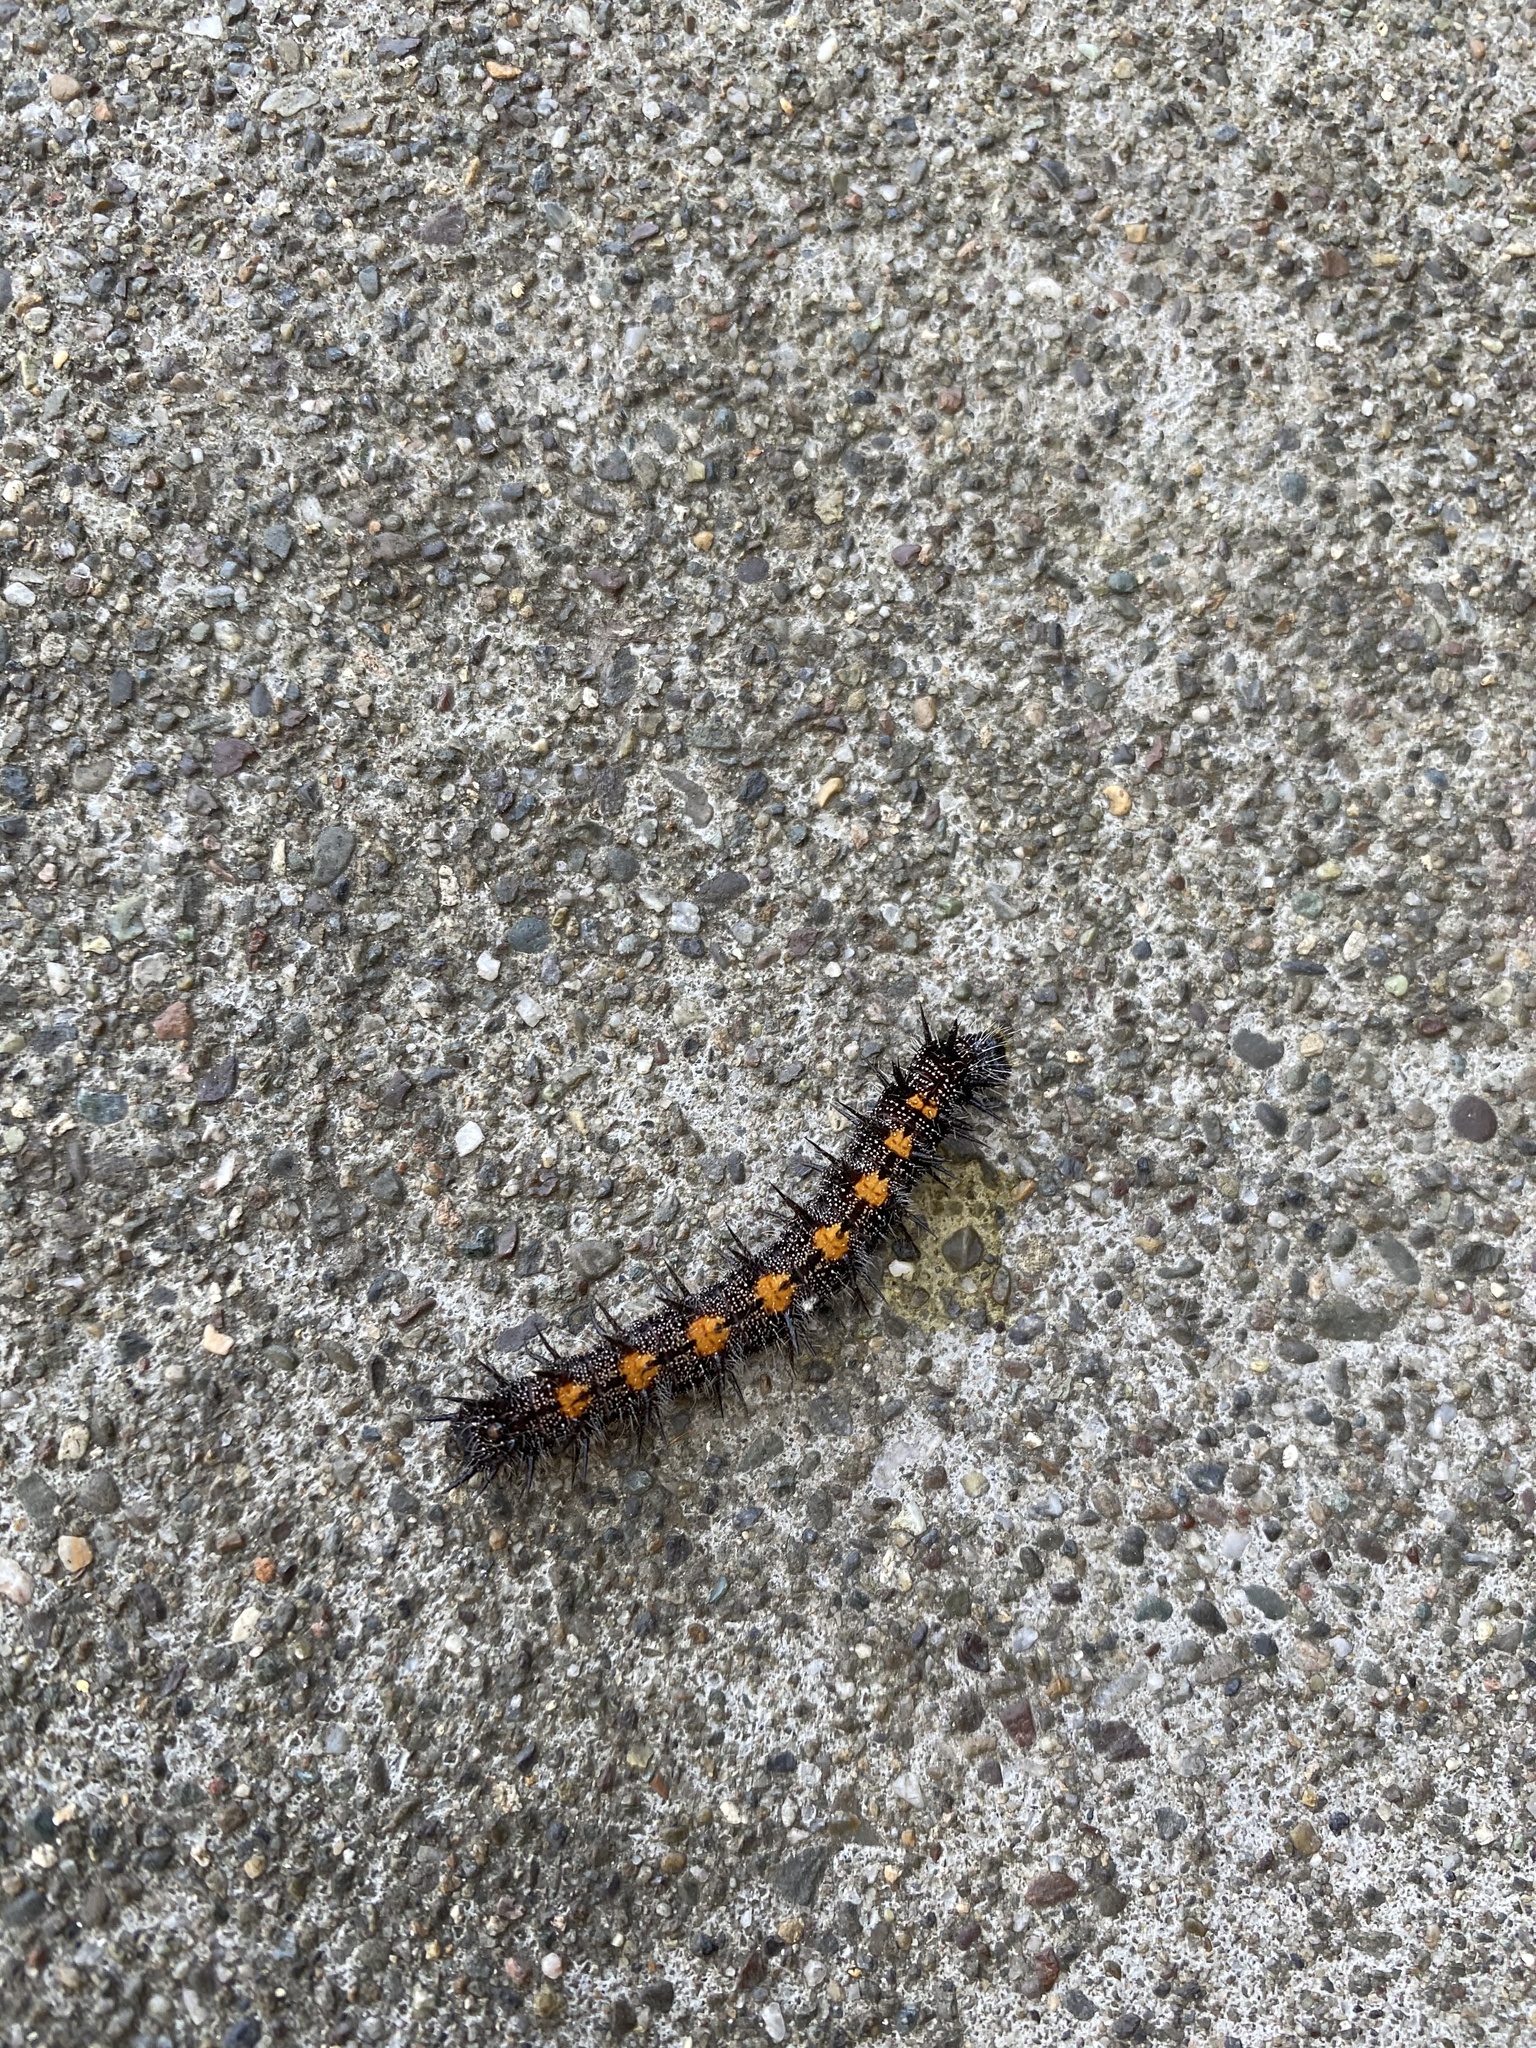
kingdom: Animalia
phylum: Arthropoda
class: Insecta
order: Lepidoptera
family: Nymphalidae
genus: Nymphalis
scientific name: Nymphalis antiopa
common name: Camberwell beauty
